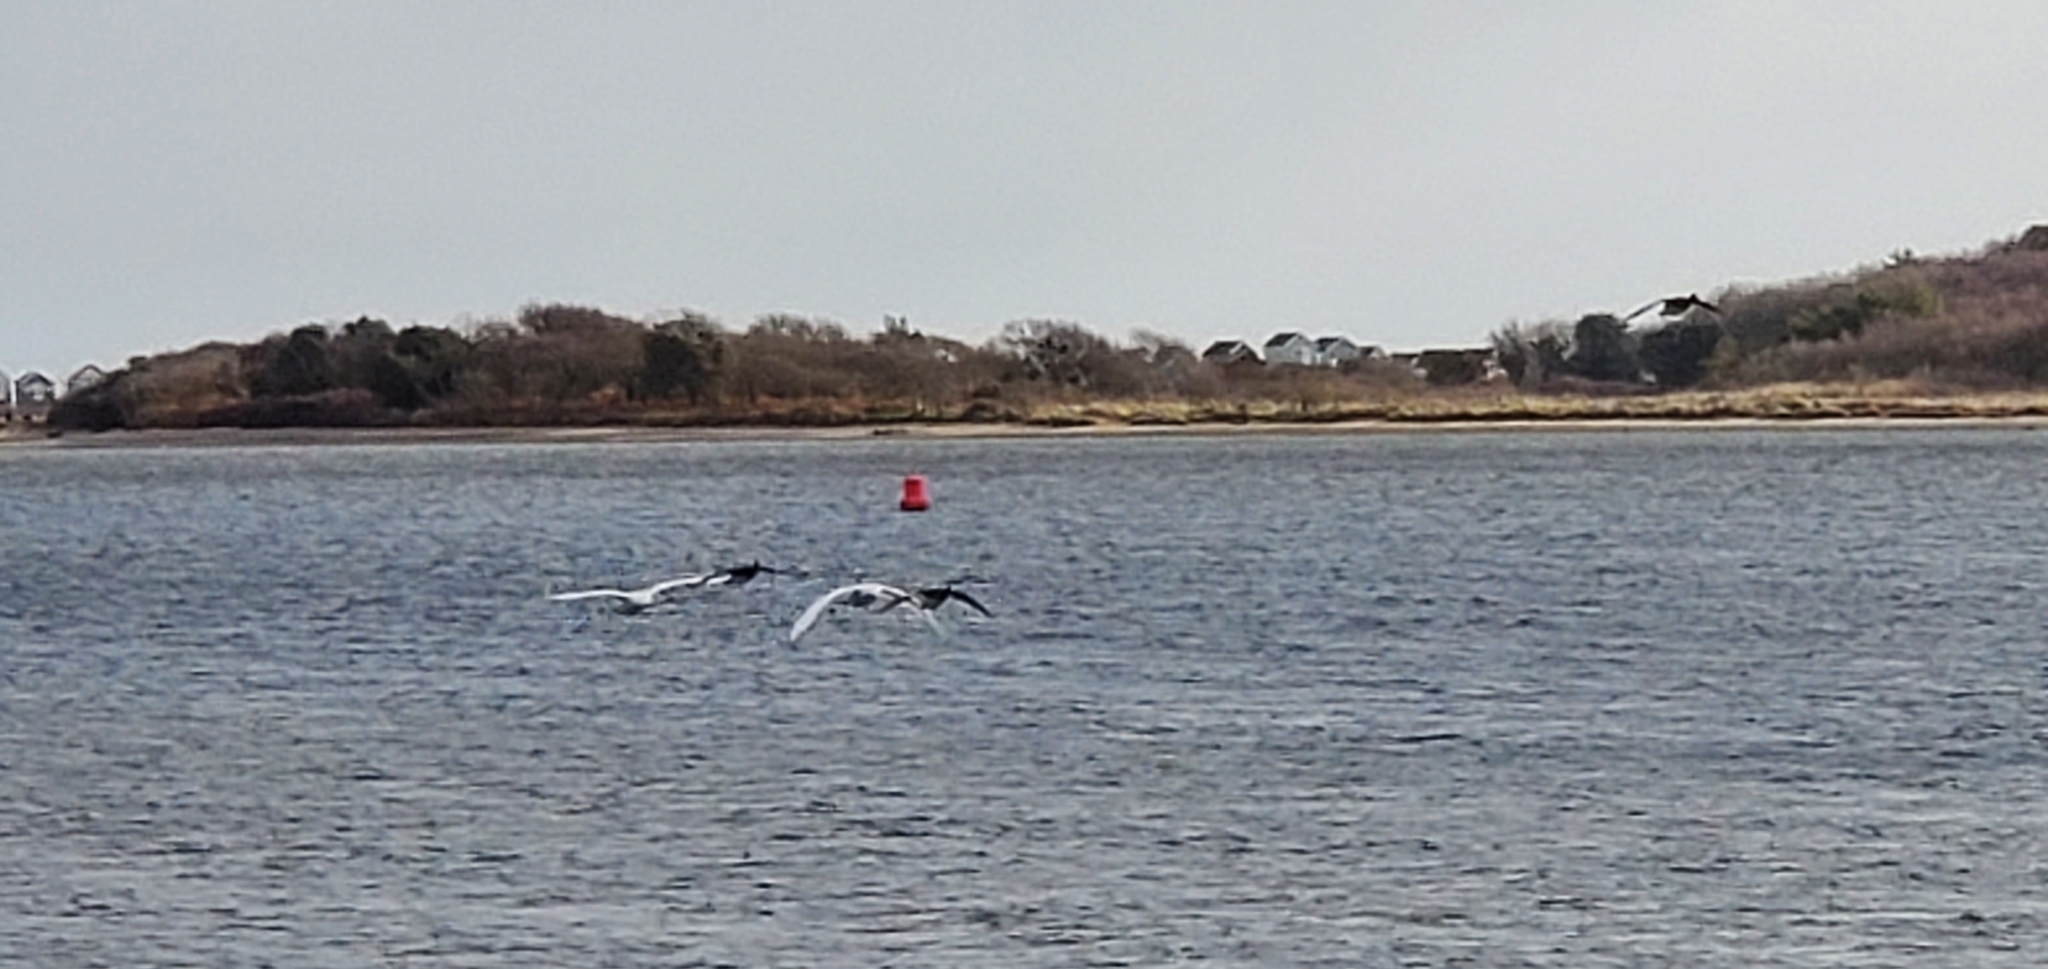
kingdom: Animalia
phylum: Chordata
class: Aves
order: Anseriformes
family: Anatidae
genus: Cygnus
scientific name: Cygnus olor
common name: Mute swan
